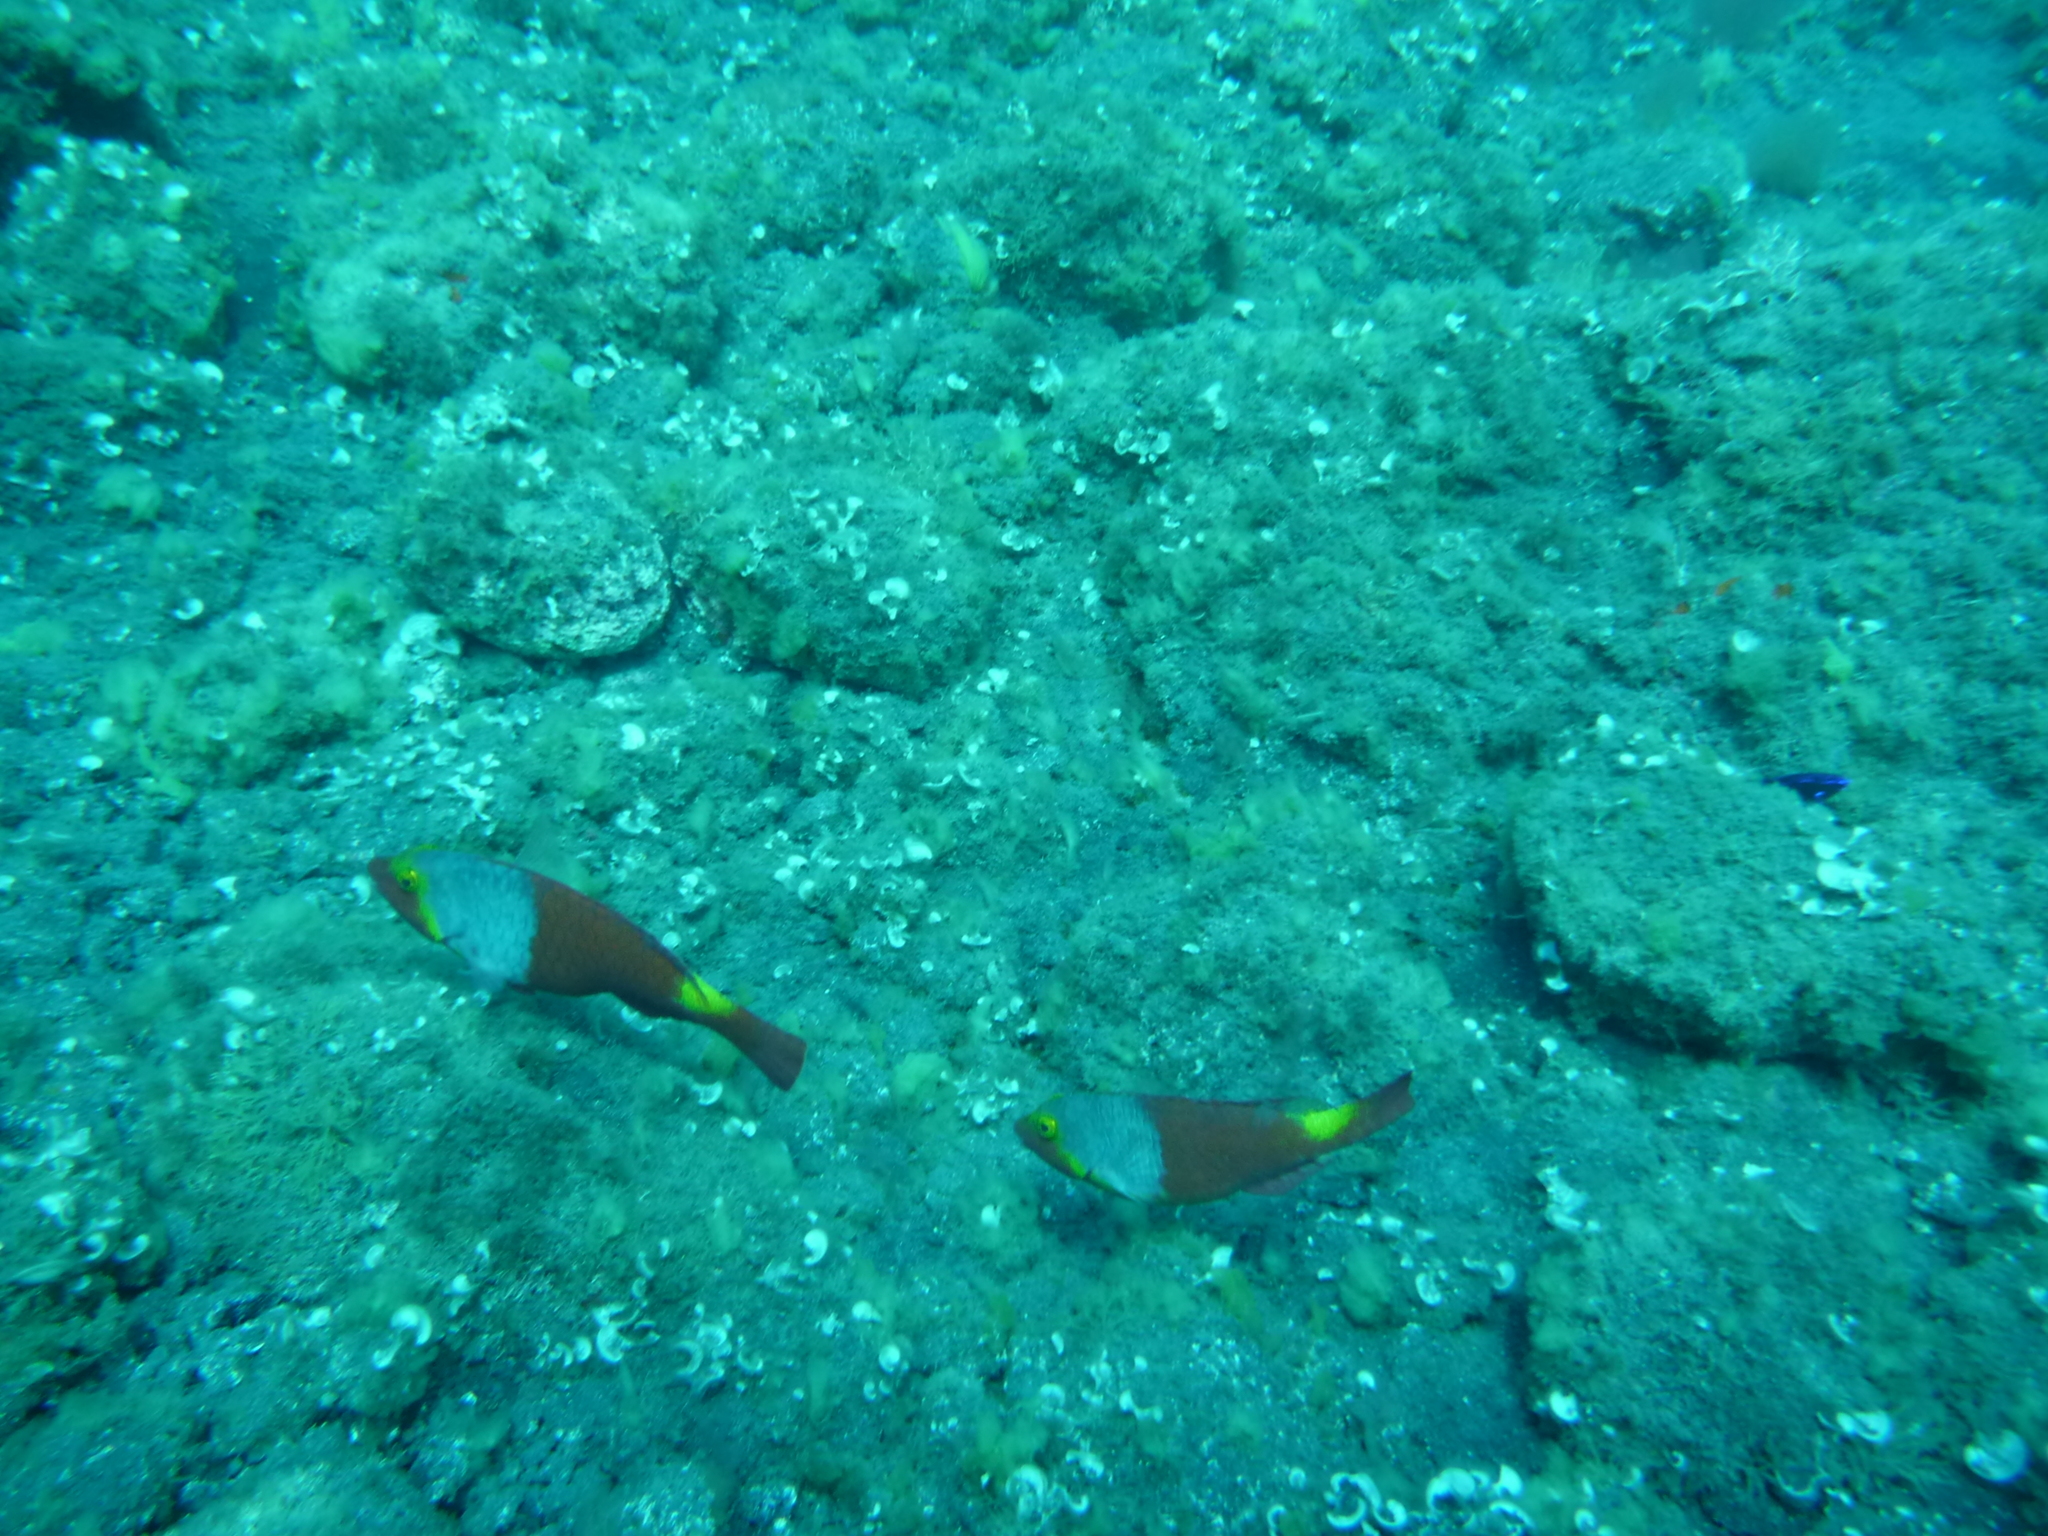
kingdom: Animalia
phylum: Chordata
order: Perciformes
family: Scaridae
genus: Sparisoma
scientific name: Sparisoma cretense
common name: Parrotfish
